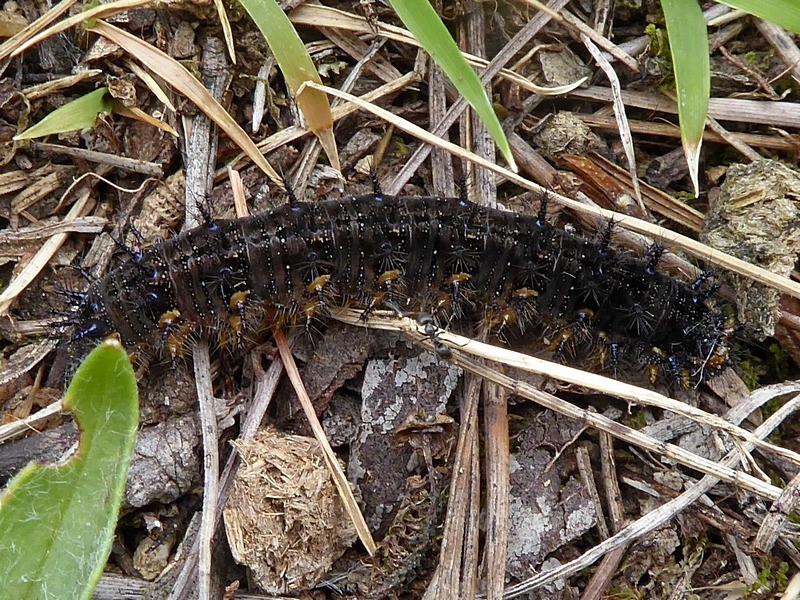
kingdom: Animalia
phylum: Arthropoda
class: Insecta
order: Lepidoptera
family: Nymphalidae
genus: Junonia
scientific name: Junonia villida
